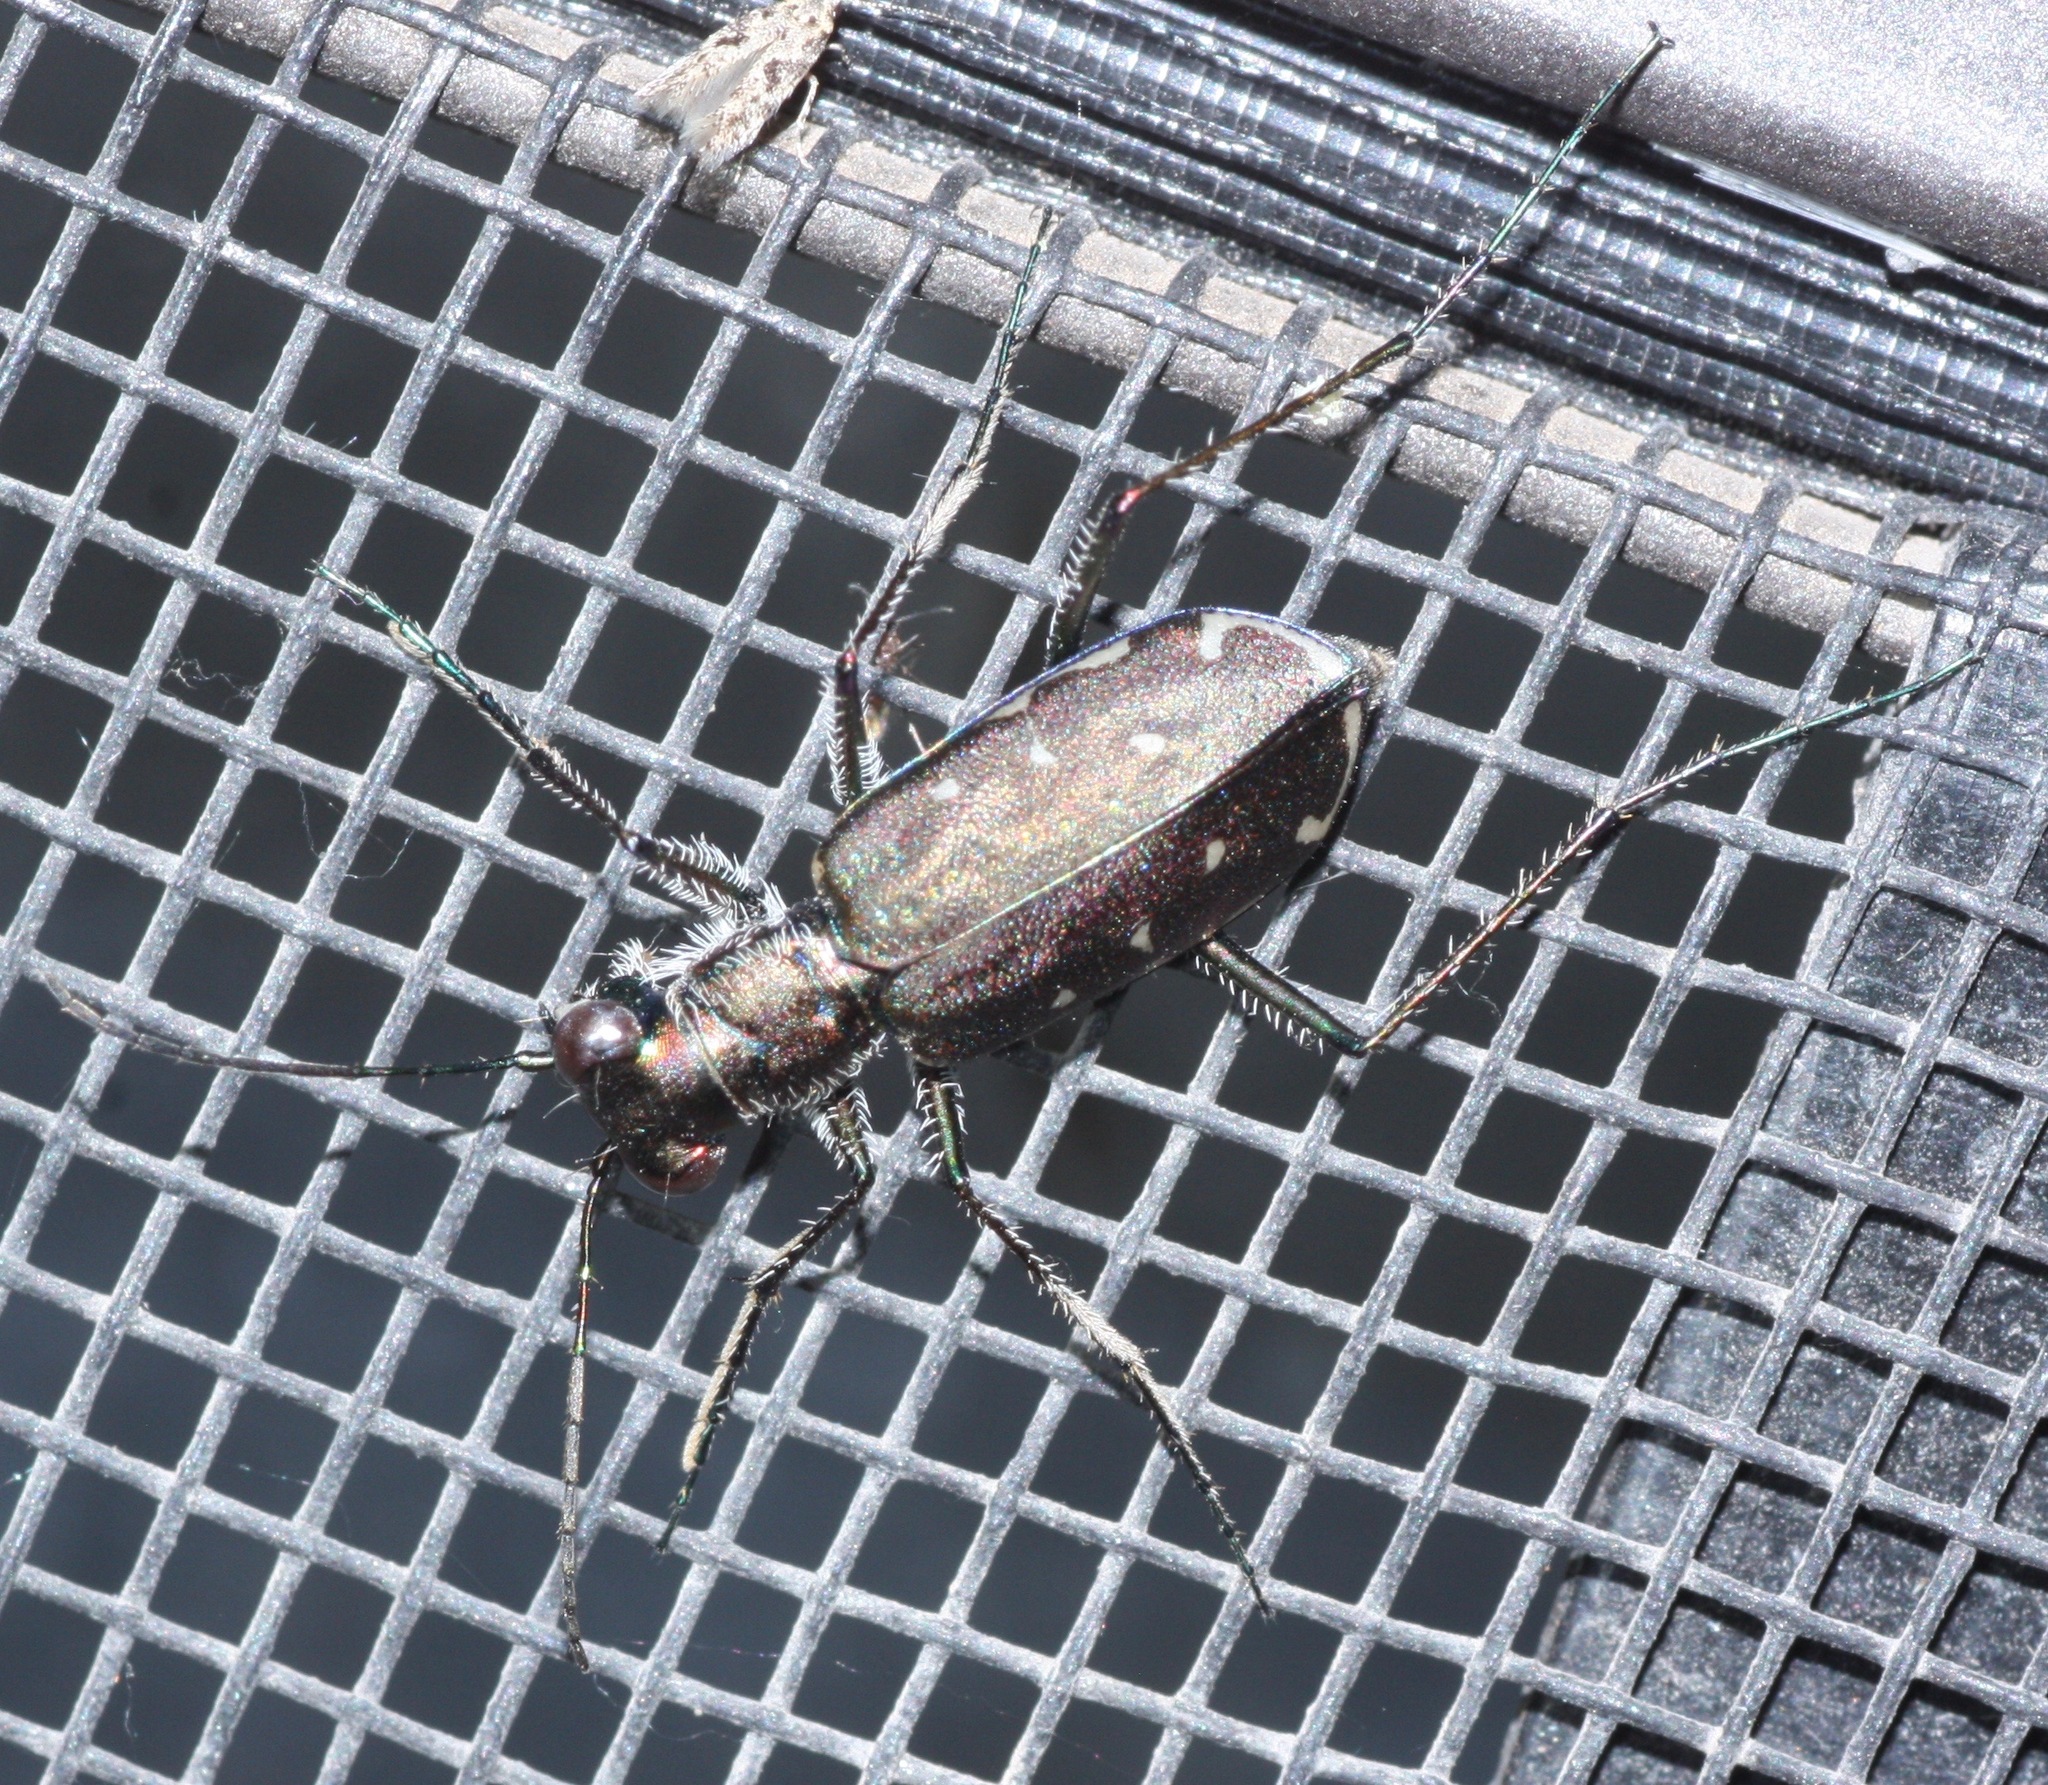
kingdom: Animalia
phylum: Arthropoda
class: Insecta
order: Coleoptera
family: Carabidae
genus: Cicindela
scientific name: Cicindela punctulata
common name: Punctured tiger beetle
